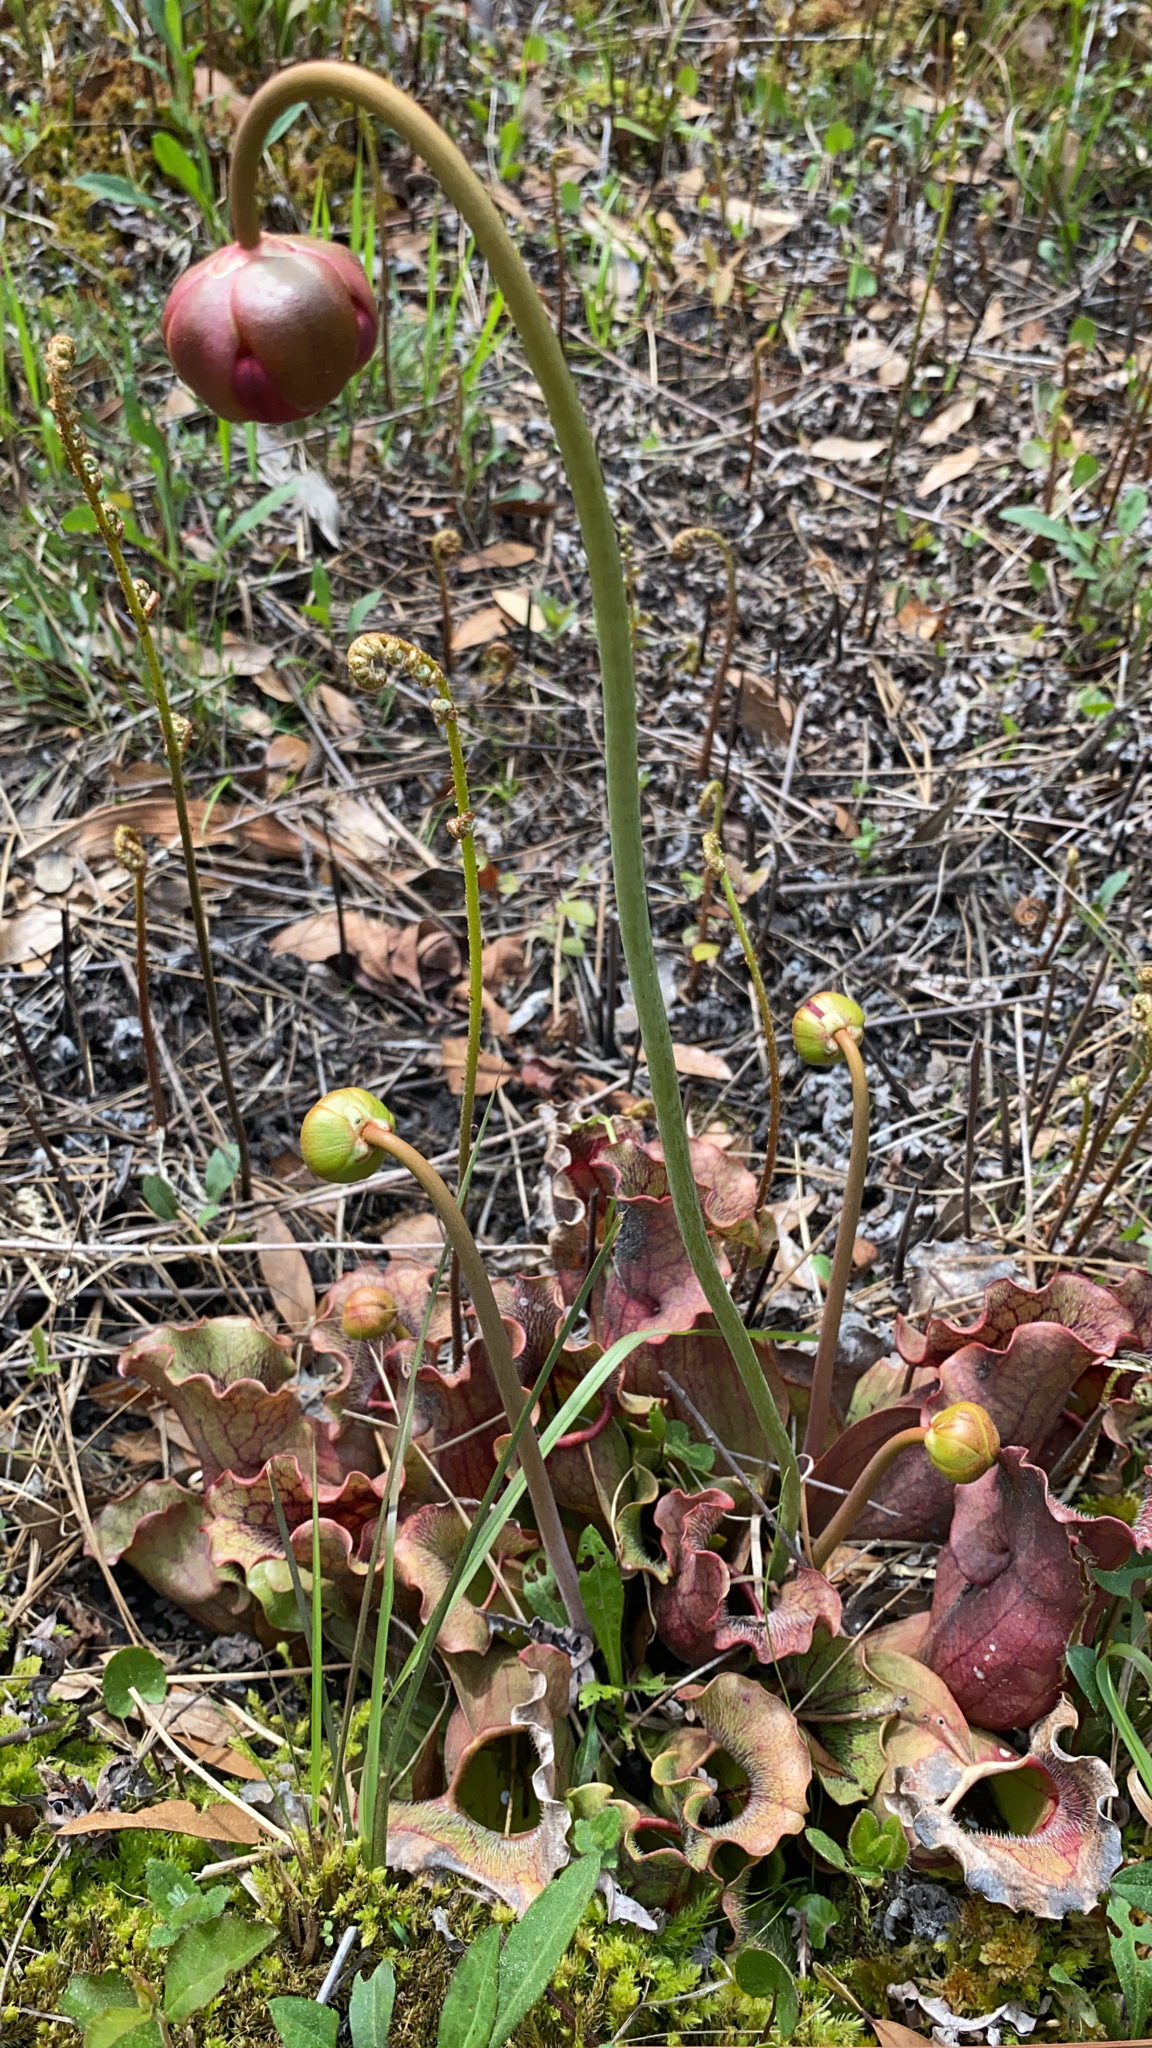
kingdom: Plantae
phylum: Tracheophyta
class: Magnoliopsida
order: Ericales
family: Sarraceniaceae
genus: Sarracenia
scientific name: Sarracenia purpurea
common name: Pitcherplant
